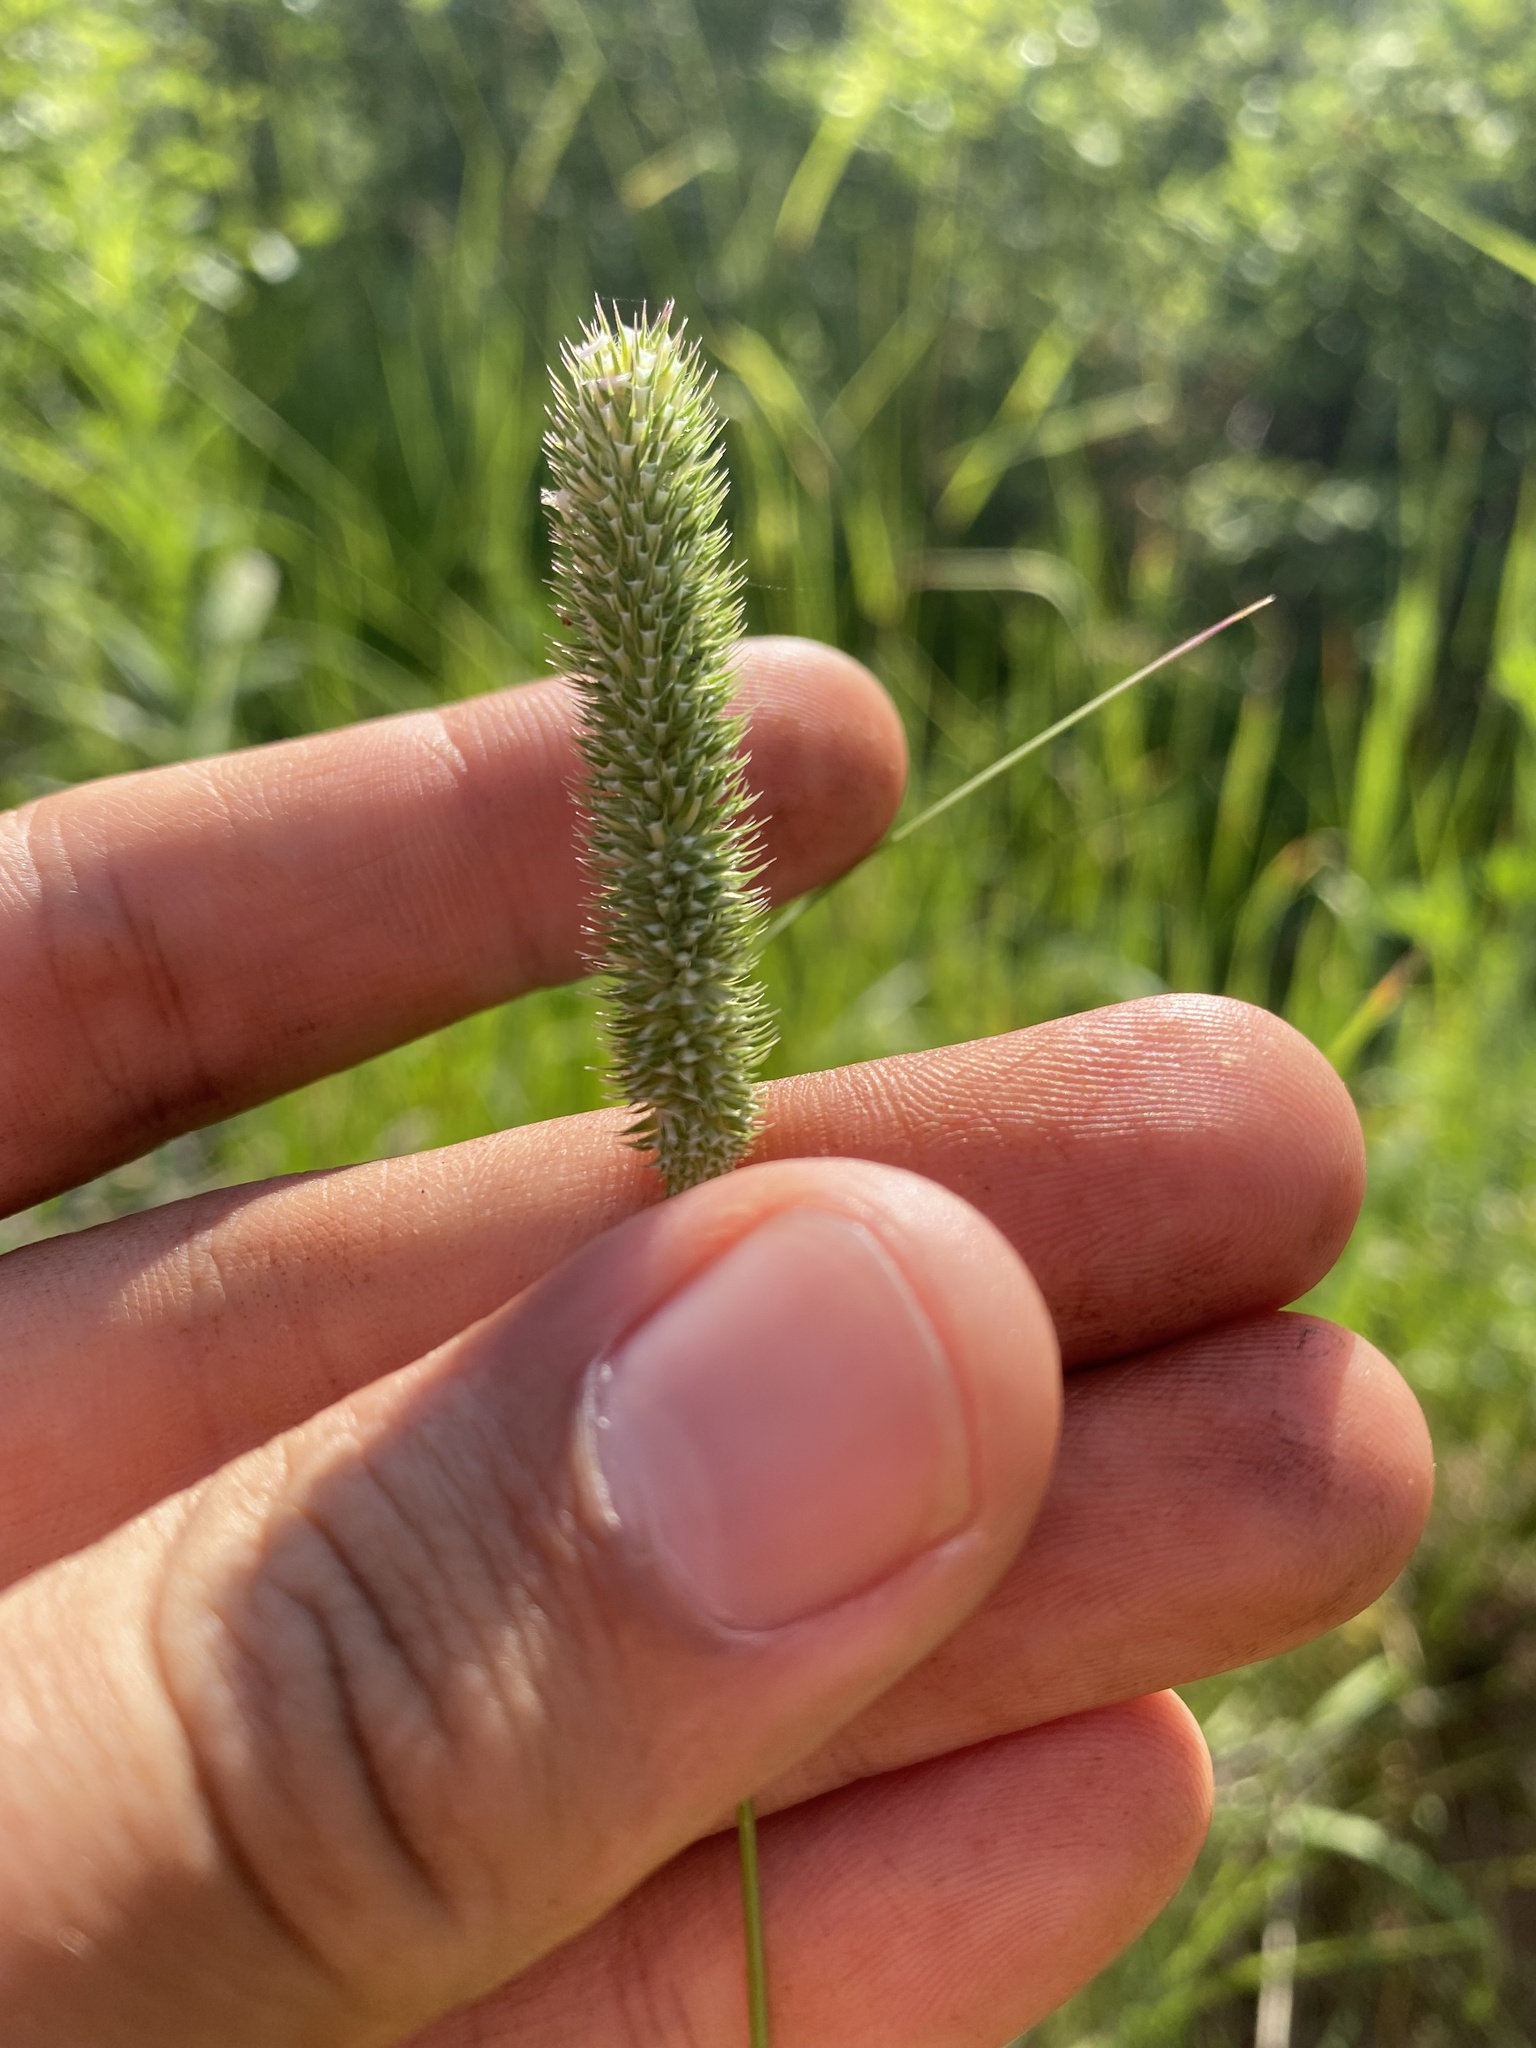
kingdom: Plantae
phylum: Tracheophyta
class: Liliopsida
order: Poales
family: Poaceae
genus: Phleum
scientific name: Phleum pratense
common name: Timothy grass
